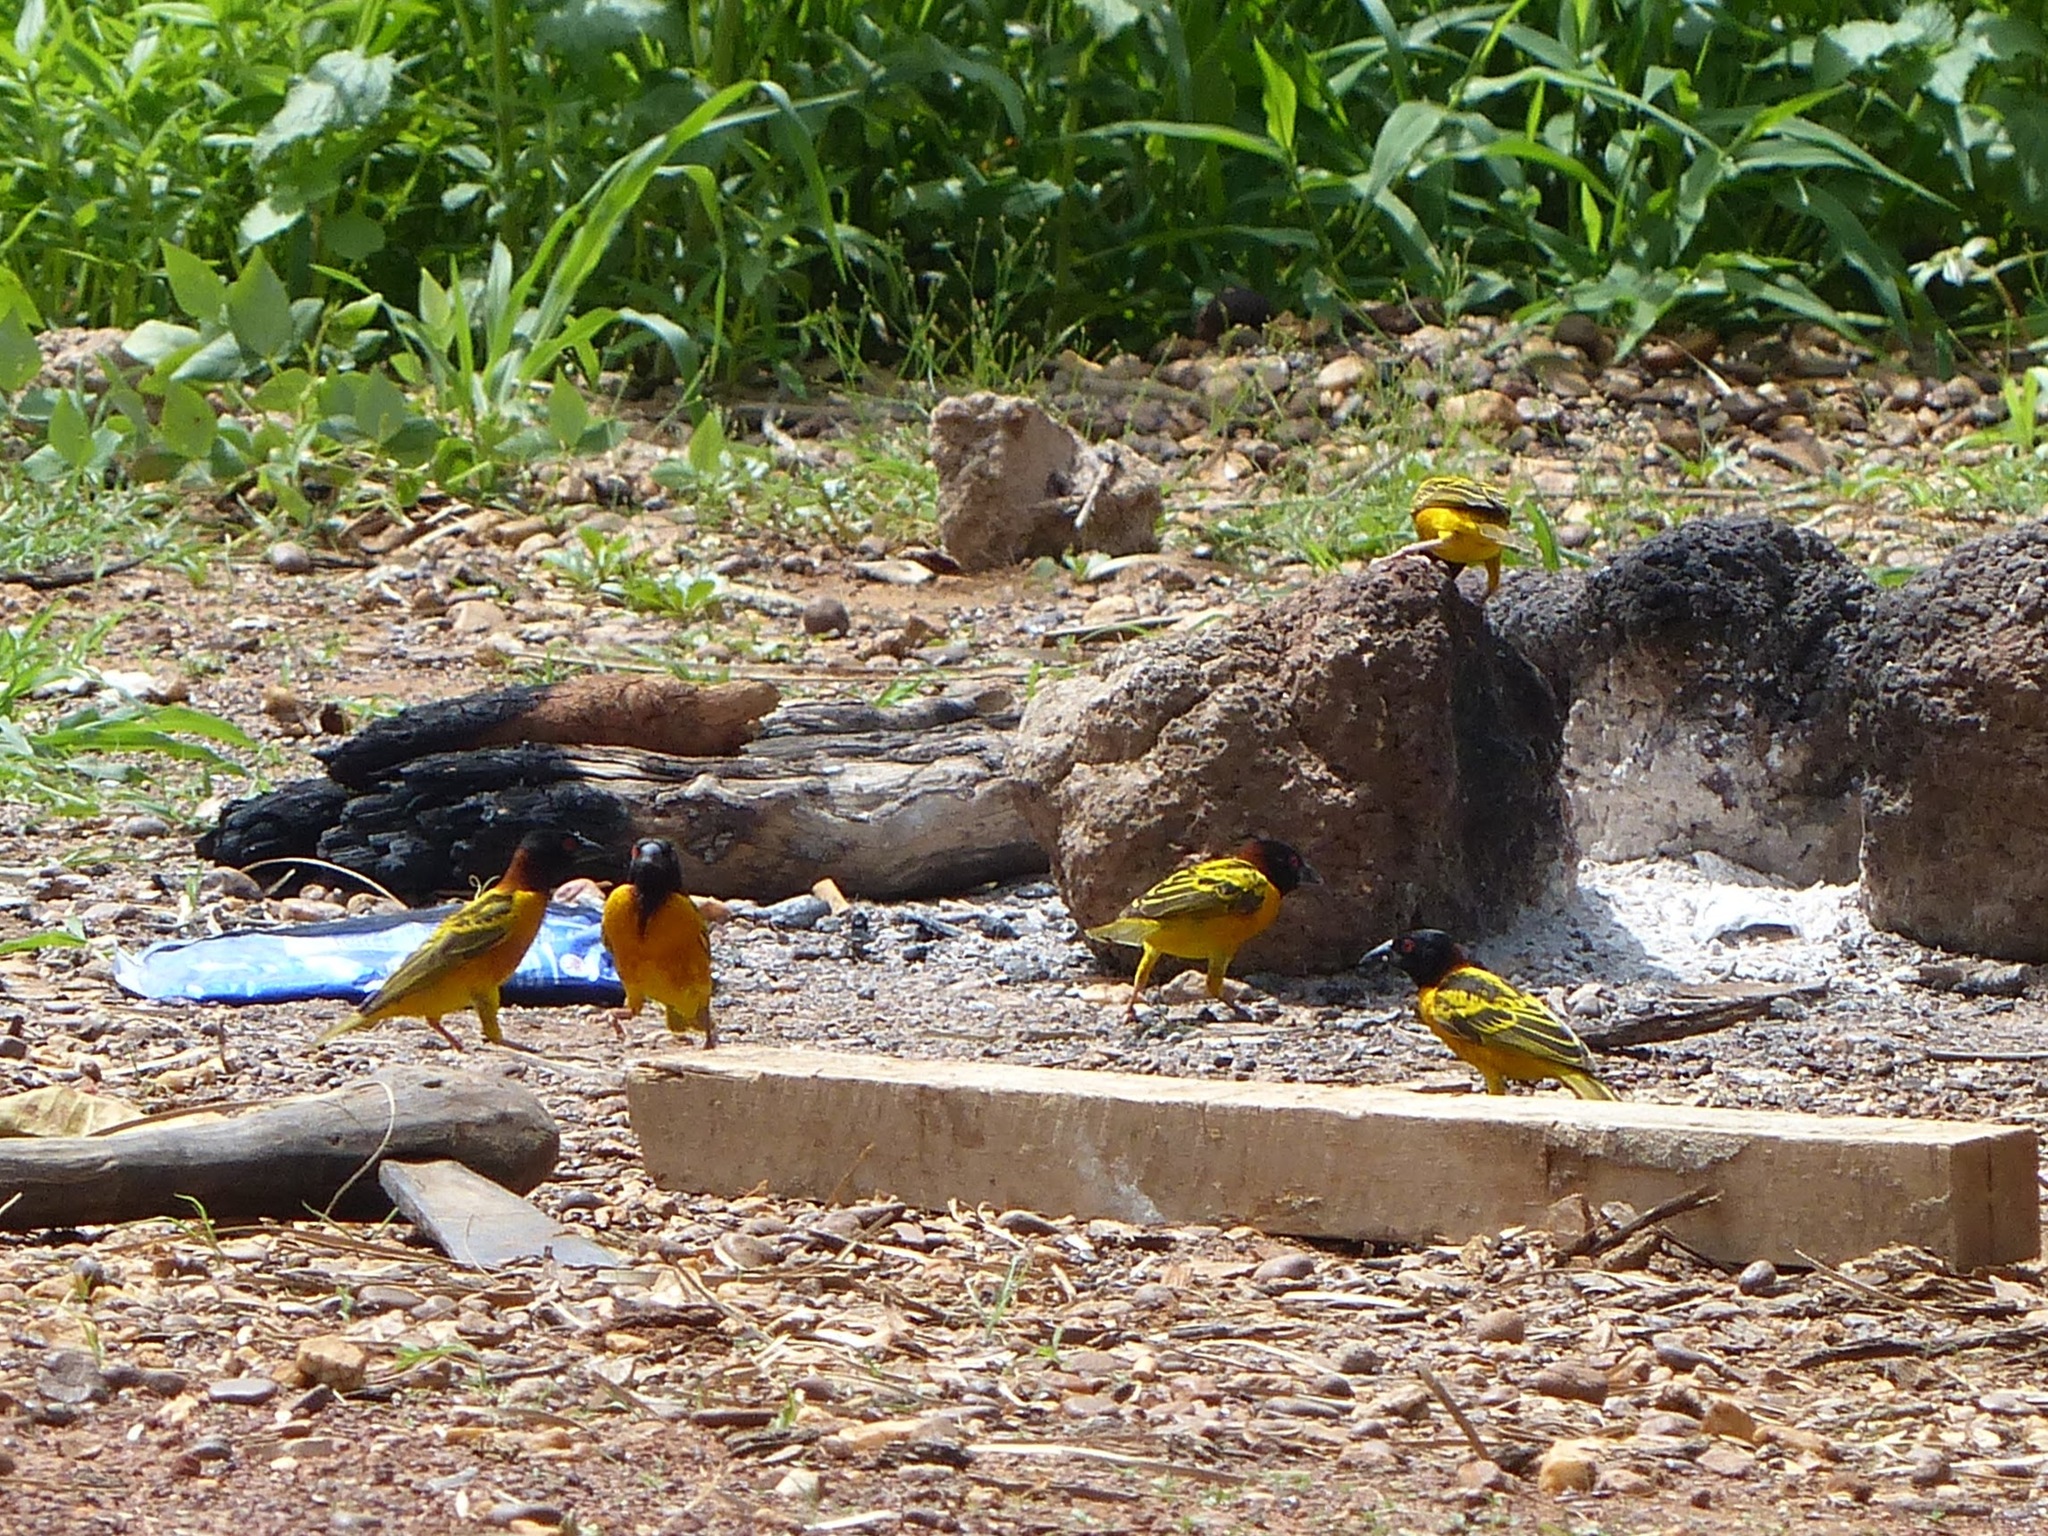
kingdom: Animalia
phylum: Chordata
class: Aves
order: Passeriformes
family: Ploceidae
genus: Ploceus
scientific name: Ploceus cucullatus
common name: Village weaver
